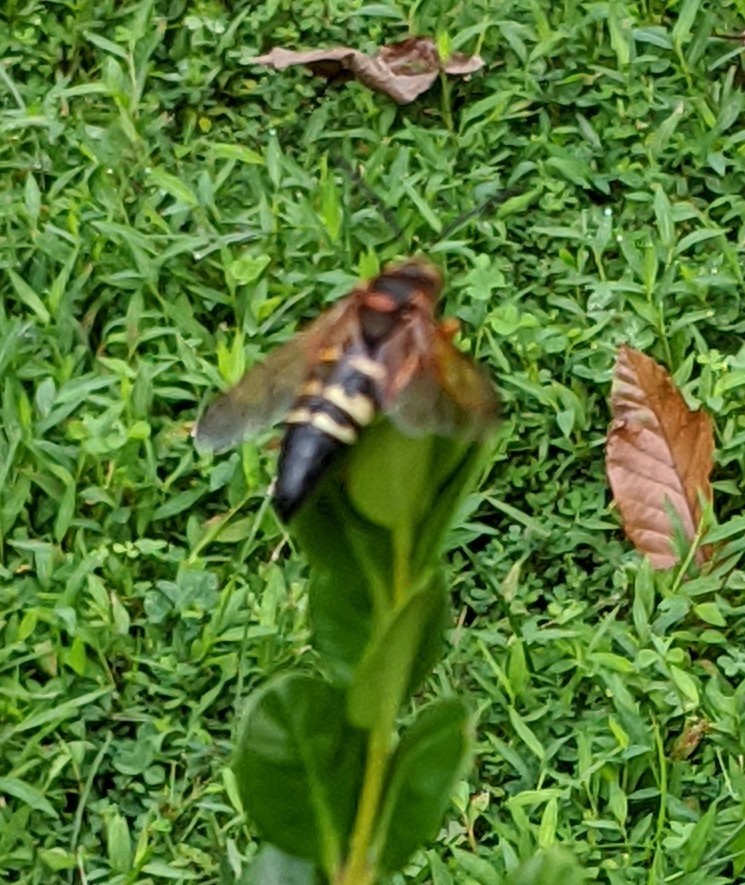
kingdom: Animalia
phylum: Arthropoda
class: Insecta
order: Hymenoptera
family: Crabronidae
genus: Sphecius
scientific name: Sphecius speciosus
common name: Cicada killer
